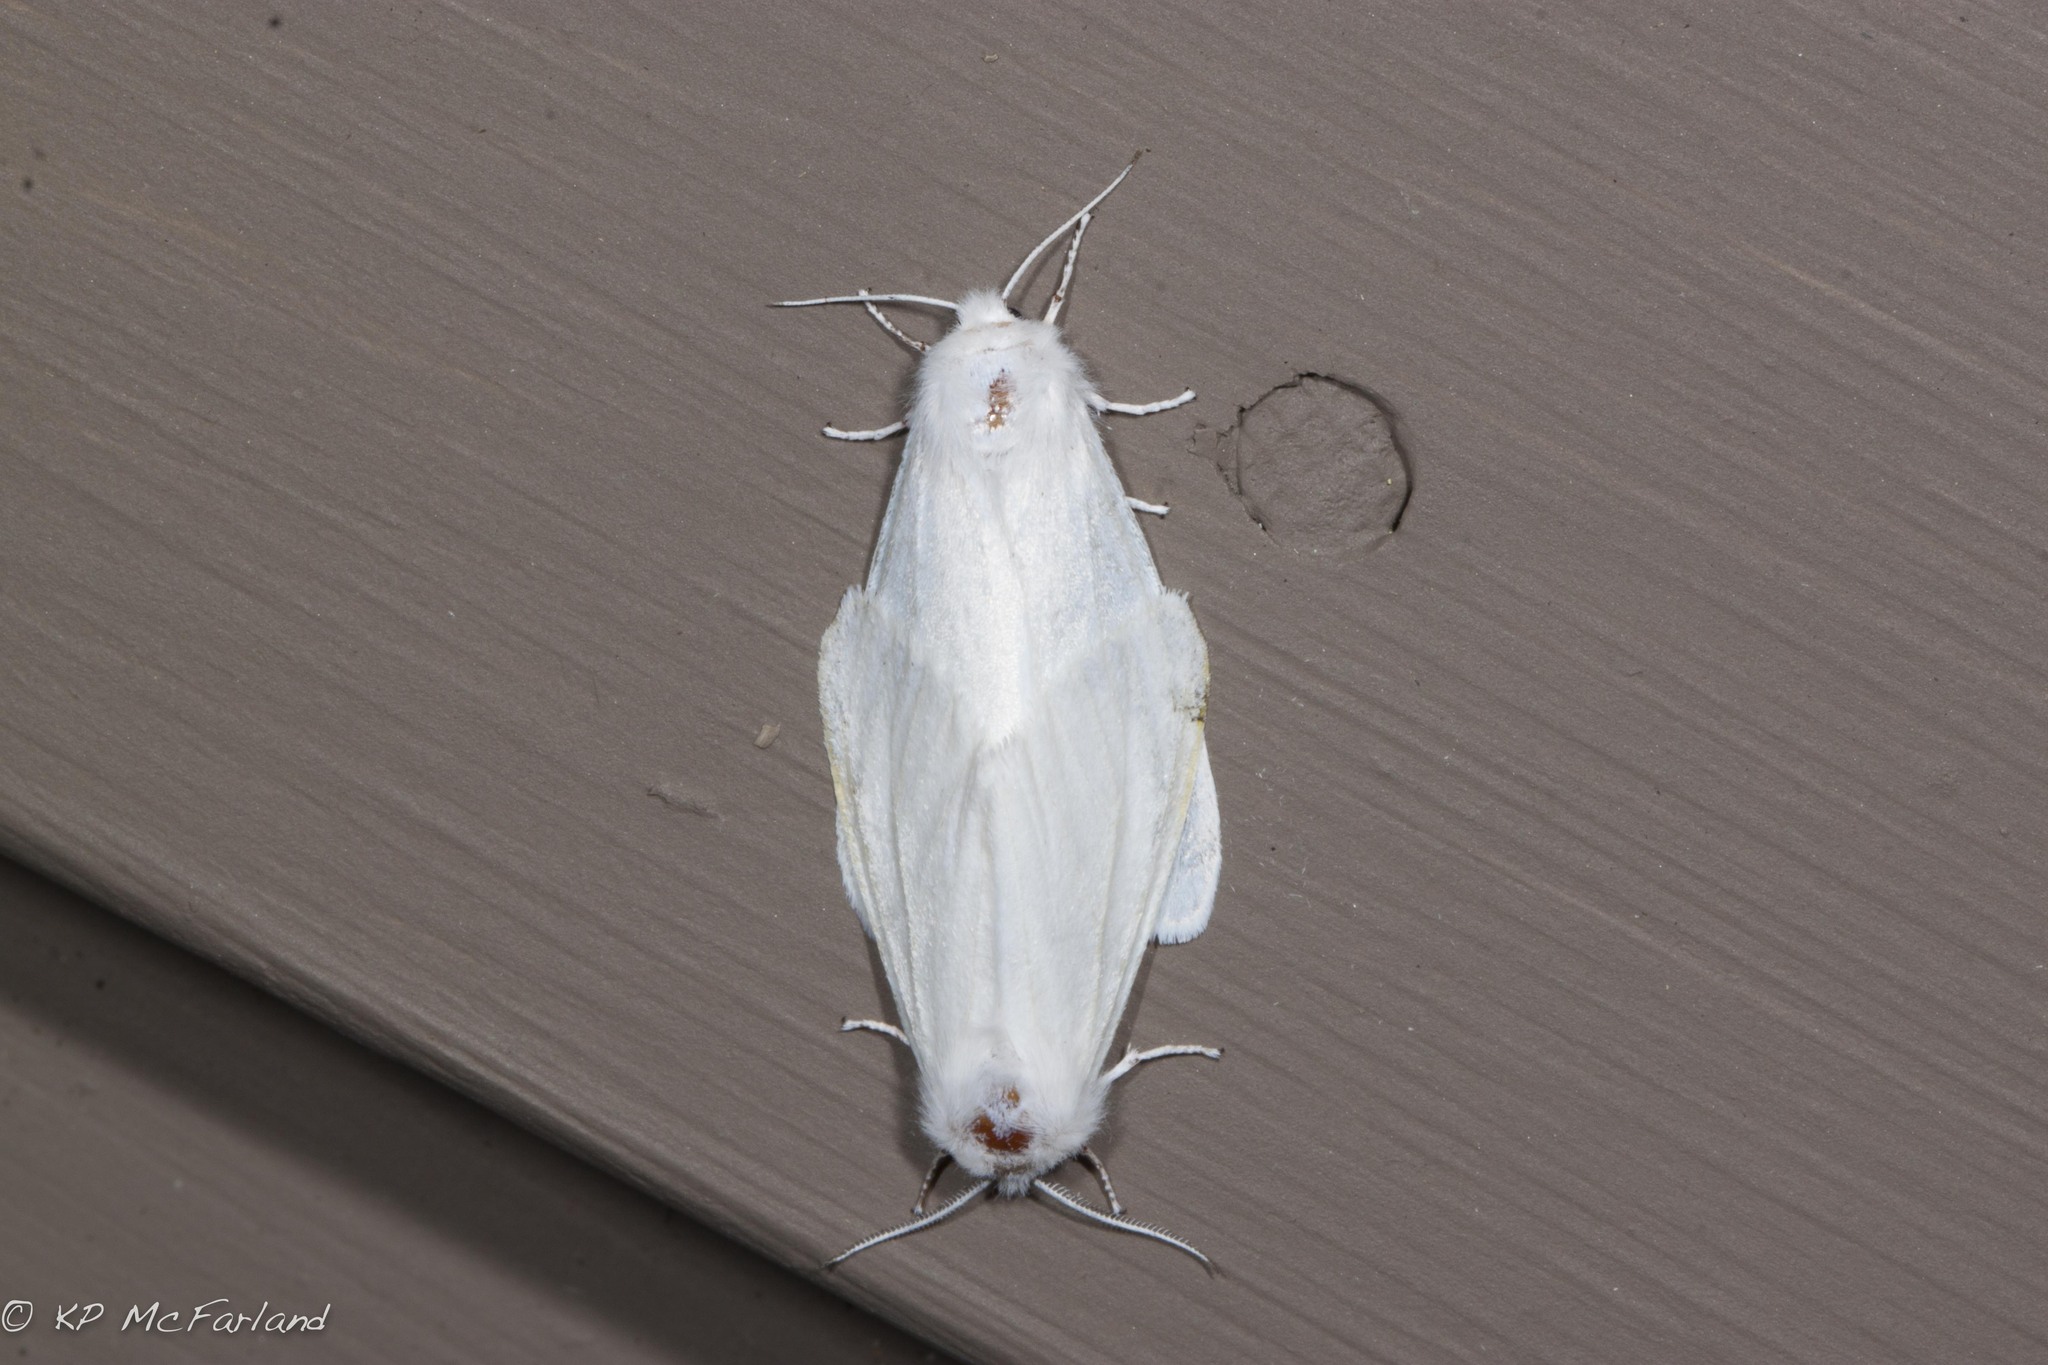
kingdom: Animalia
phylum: Arthropoda
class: Insecta
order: Lepidoptera
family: Erebidae
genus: Hyphantria
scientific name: Hyphantria cunea
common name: American white moth
